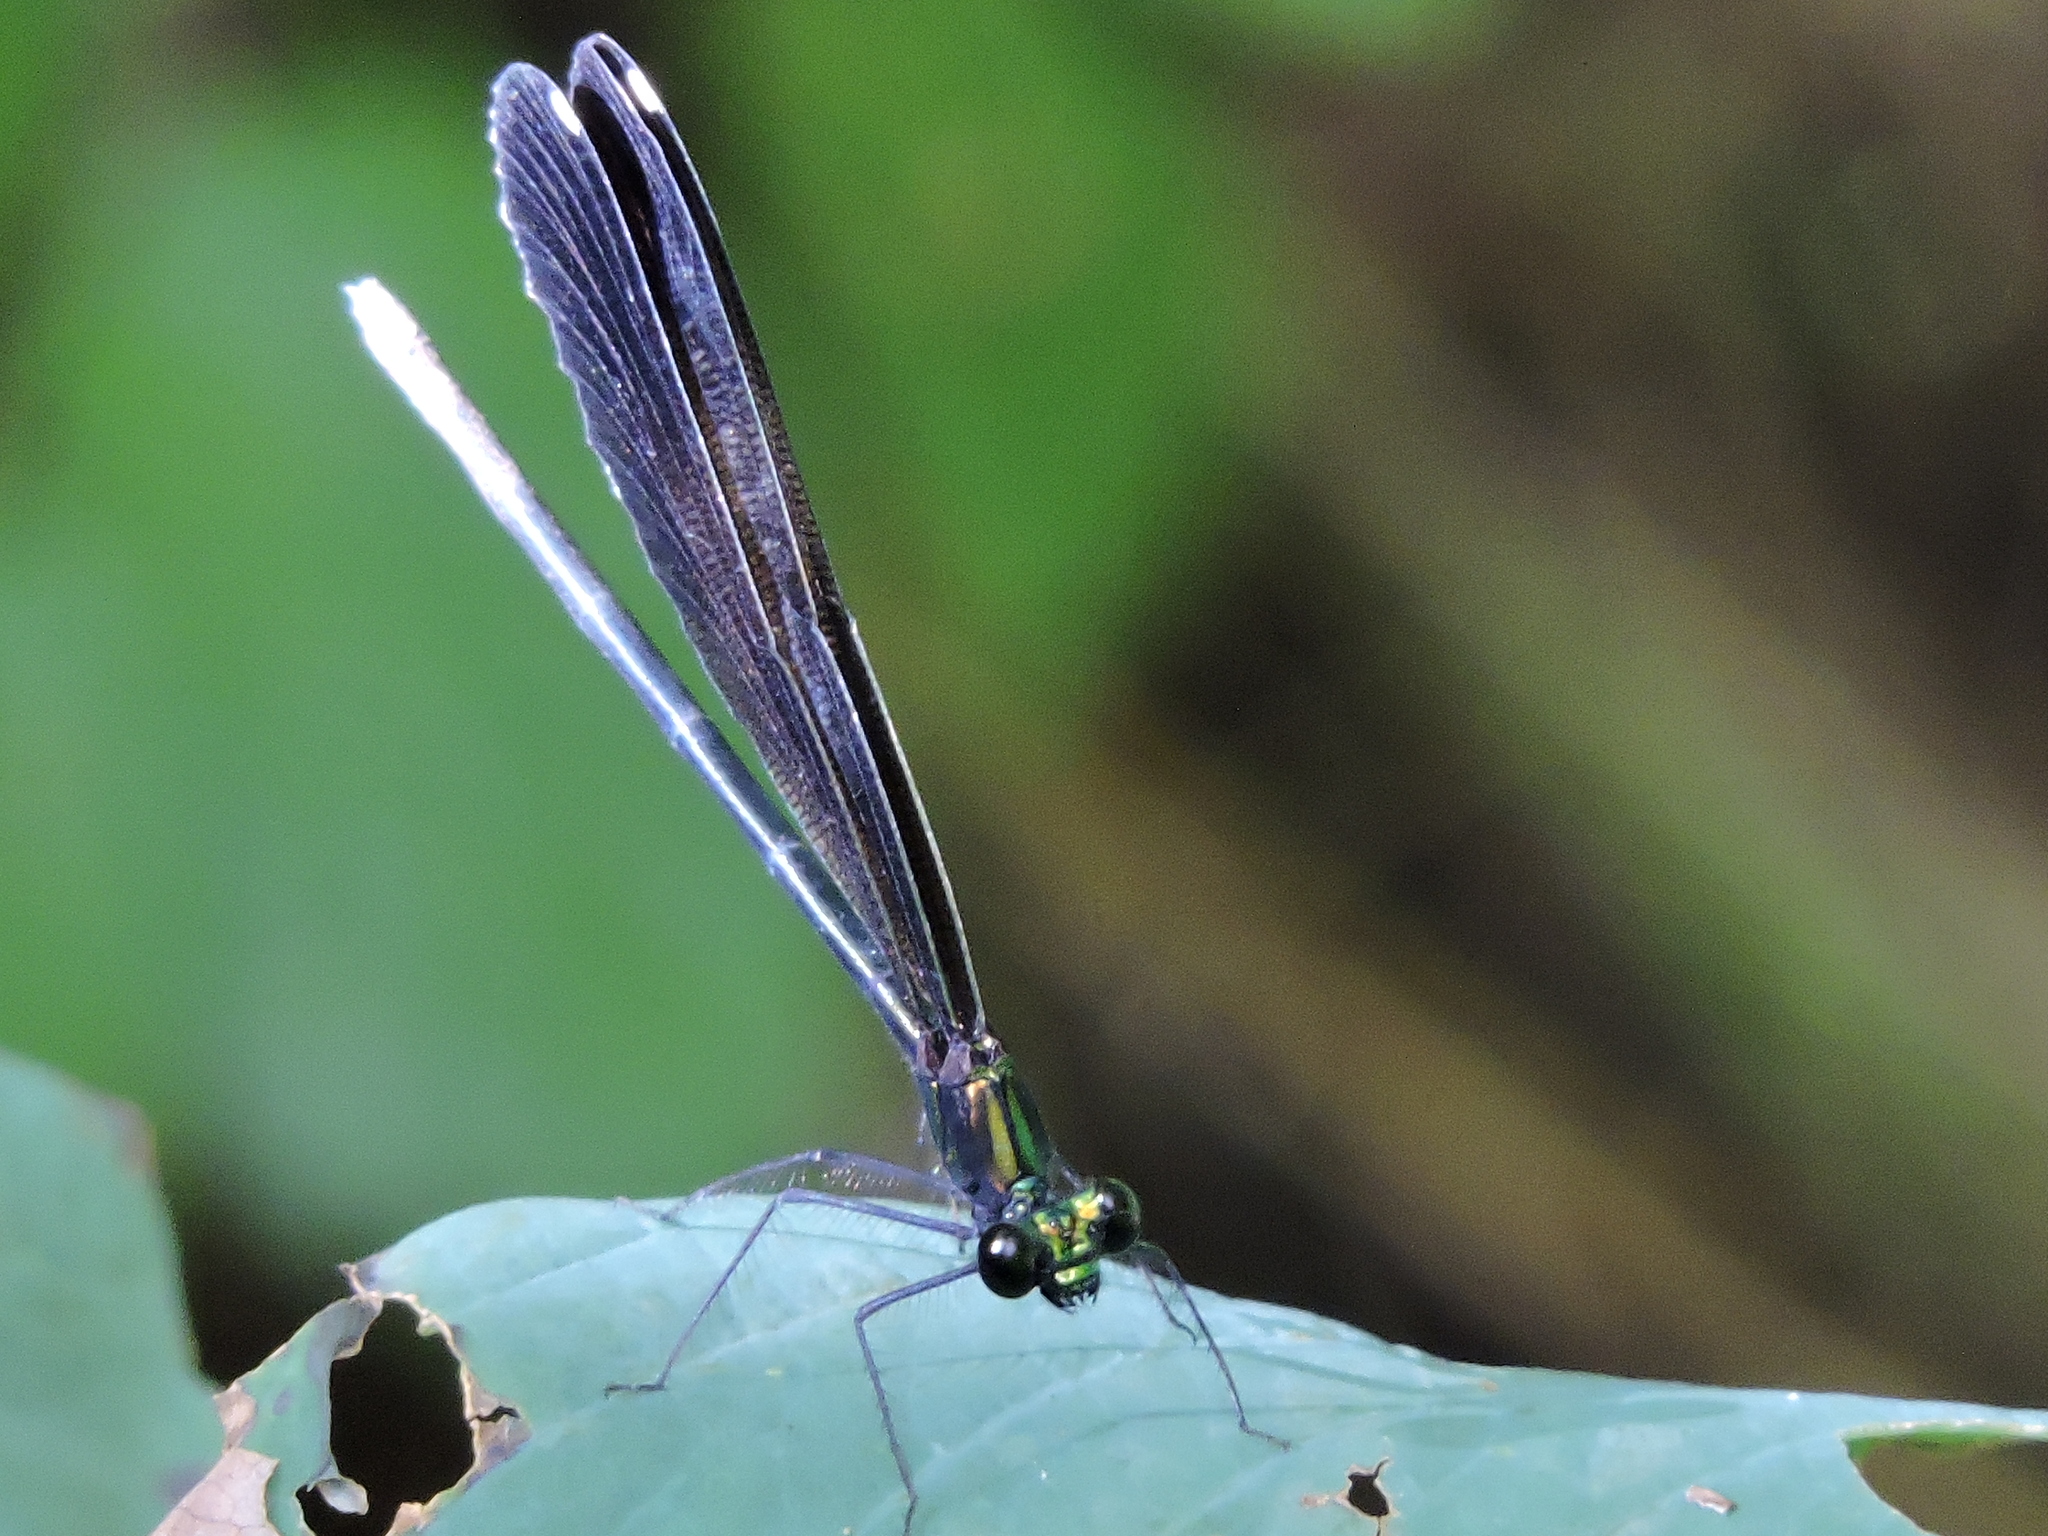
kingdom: Animalia
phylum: Arthropoda
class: Insecta
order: Odonata
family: Calopterygidae
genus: Calopteryx
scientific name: Calopteryx maculata
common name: Ebony jewelwing
